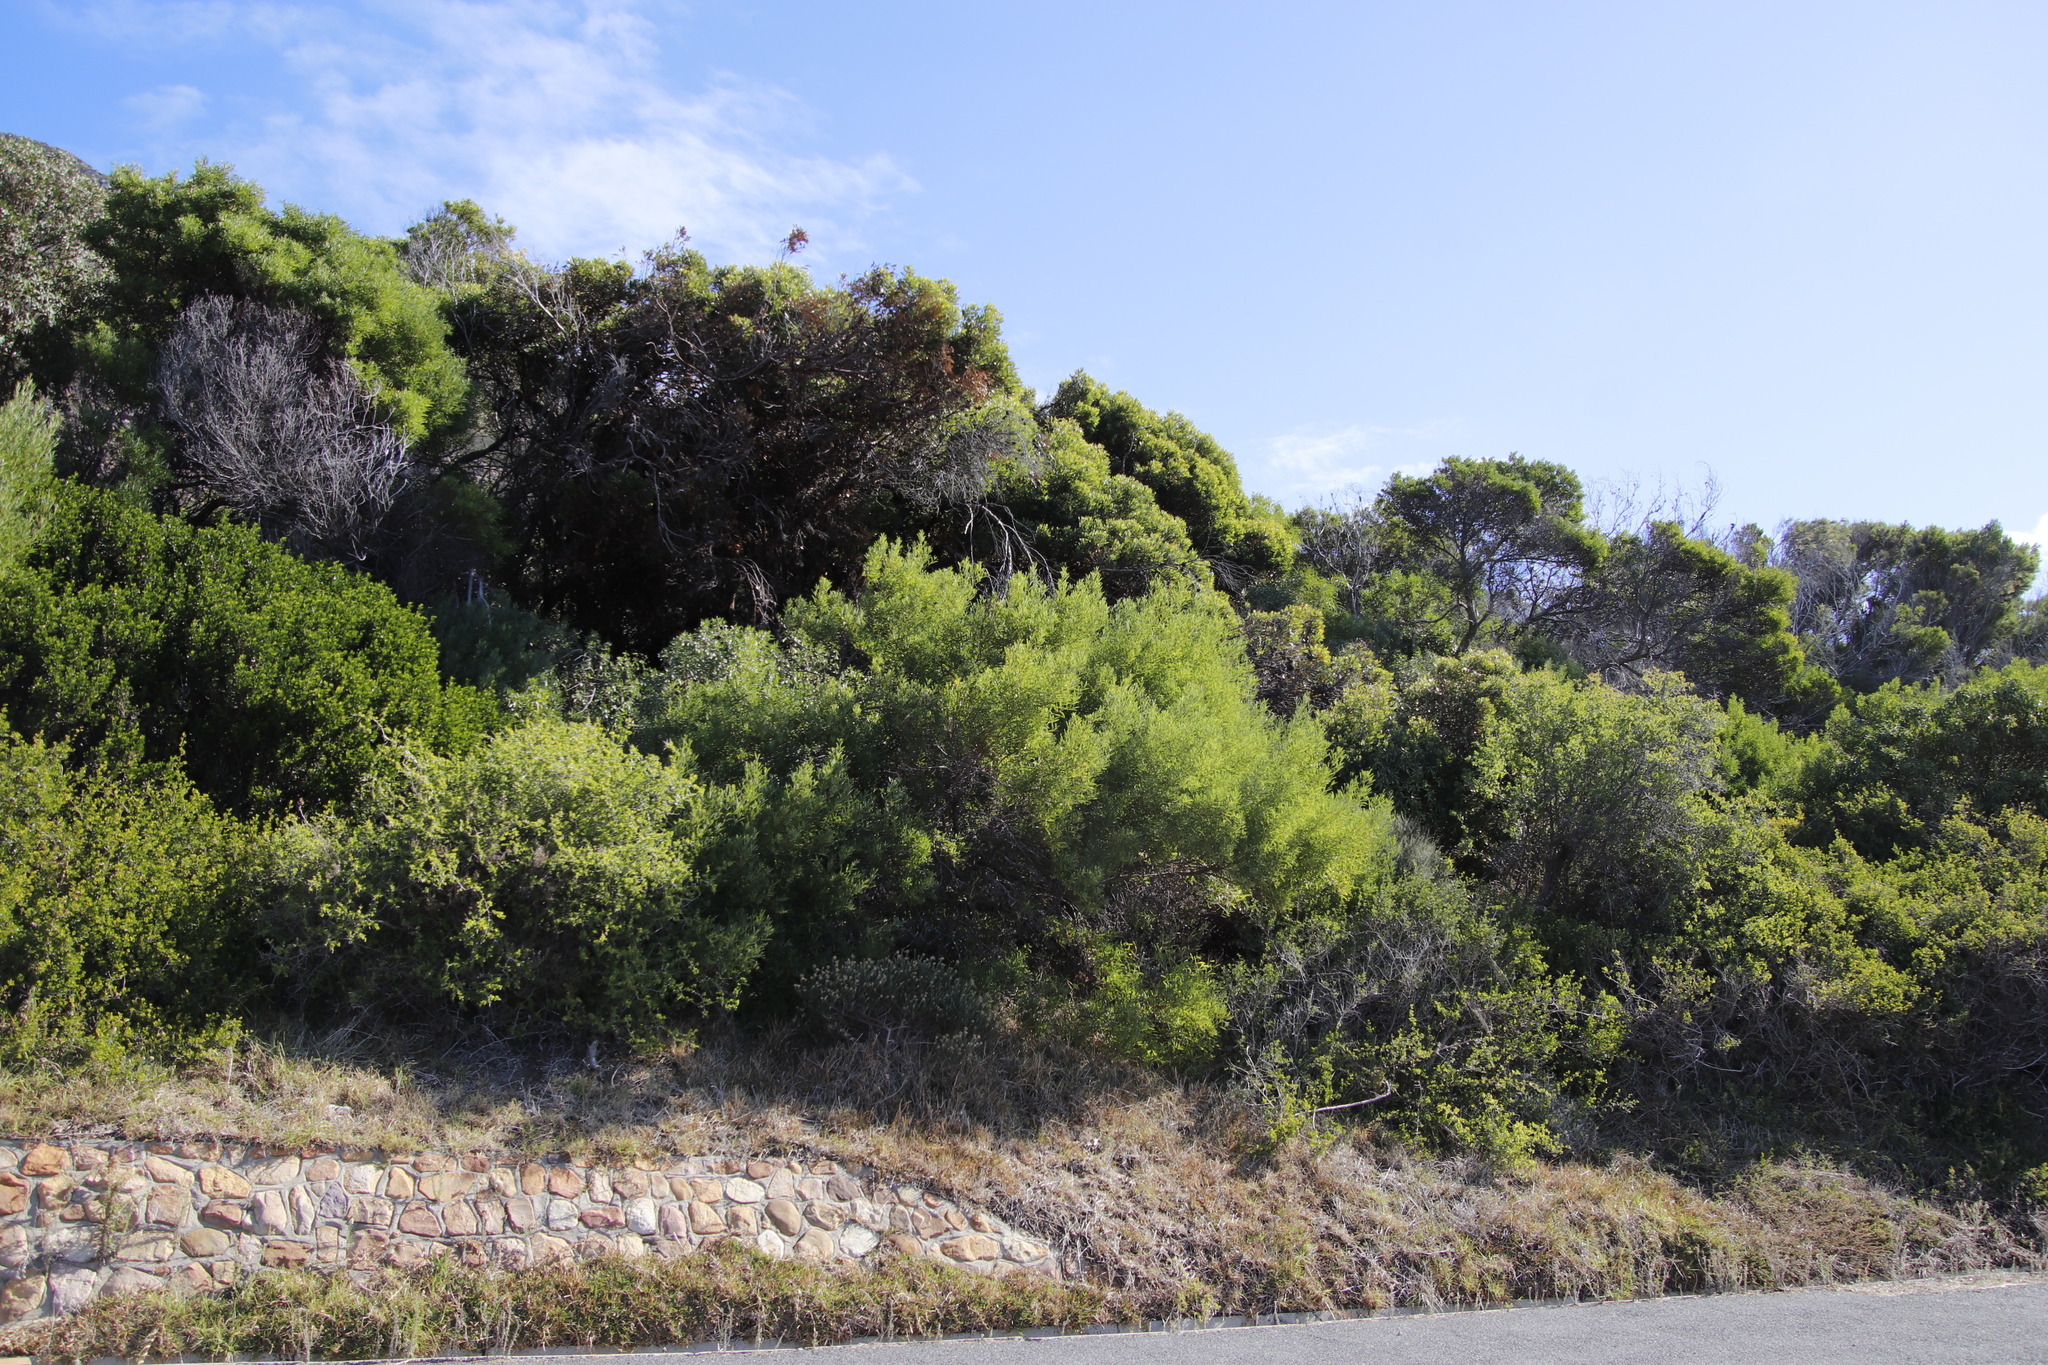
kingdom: Plantae
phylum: Tracheophyta
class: Magnoliopsida
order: Fabales
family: Fabaceae
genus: Acacia
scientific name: Acacia cyclops
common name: Coastal wattle
